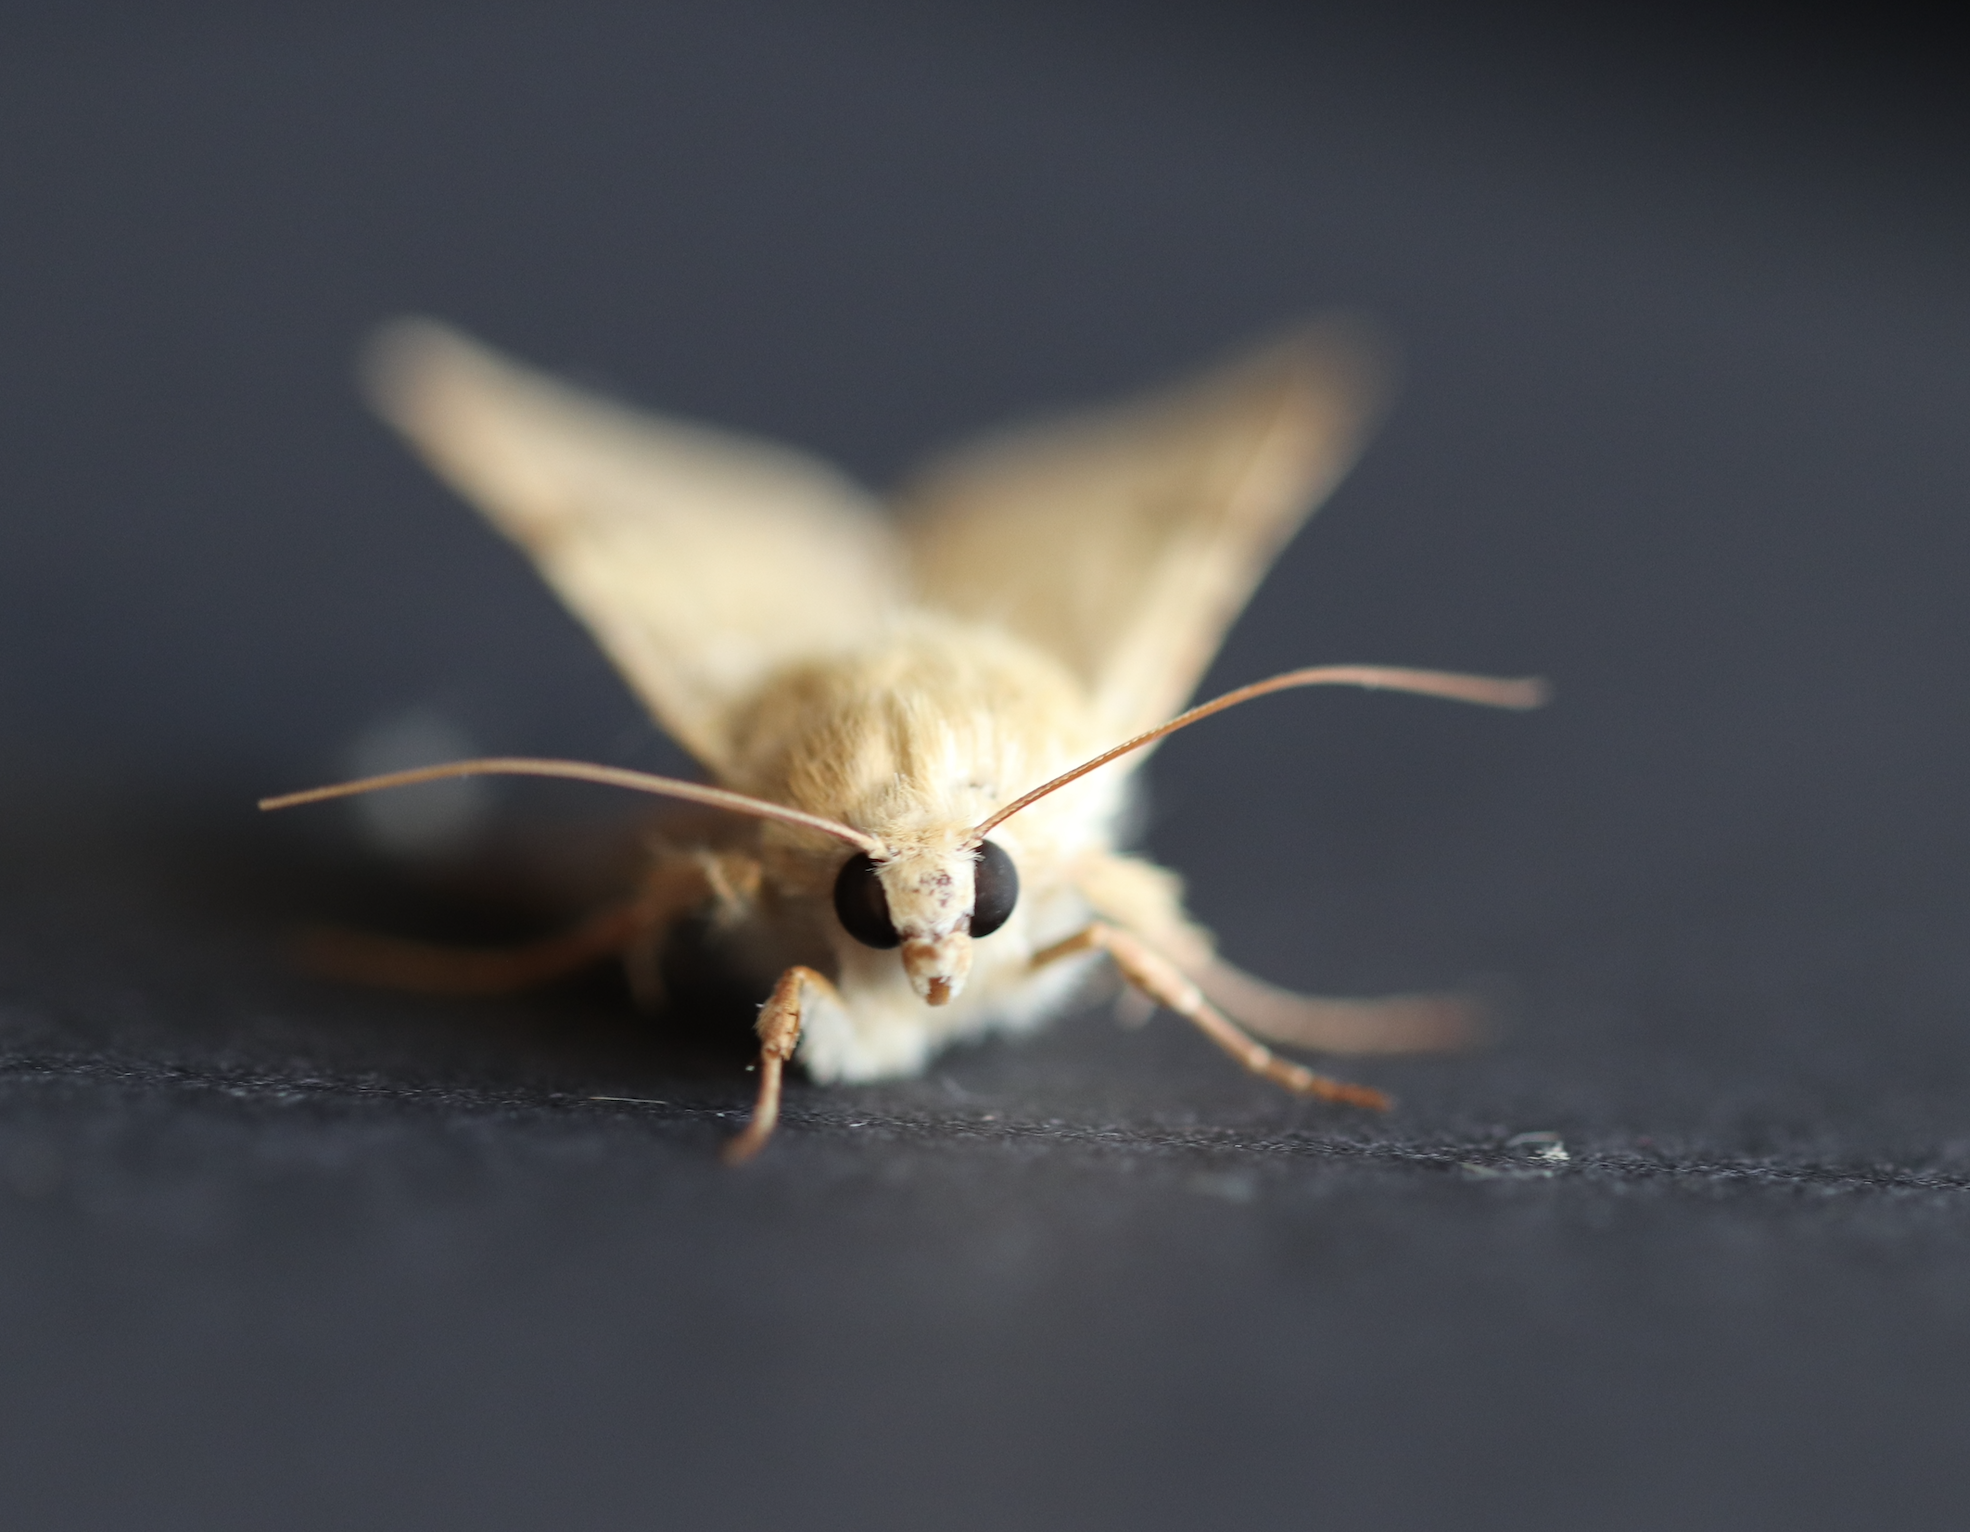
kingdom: Animalia
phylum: Arthropoda
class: Insecta
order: Lepidoptera
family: Noctuidae
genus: Heliothis
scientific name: Heliothis peltigera
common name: Bordered straw
